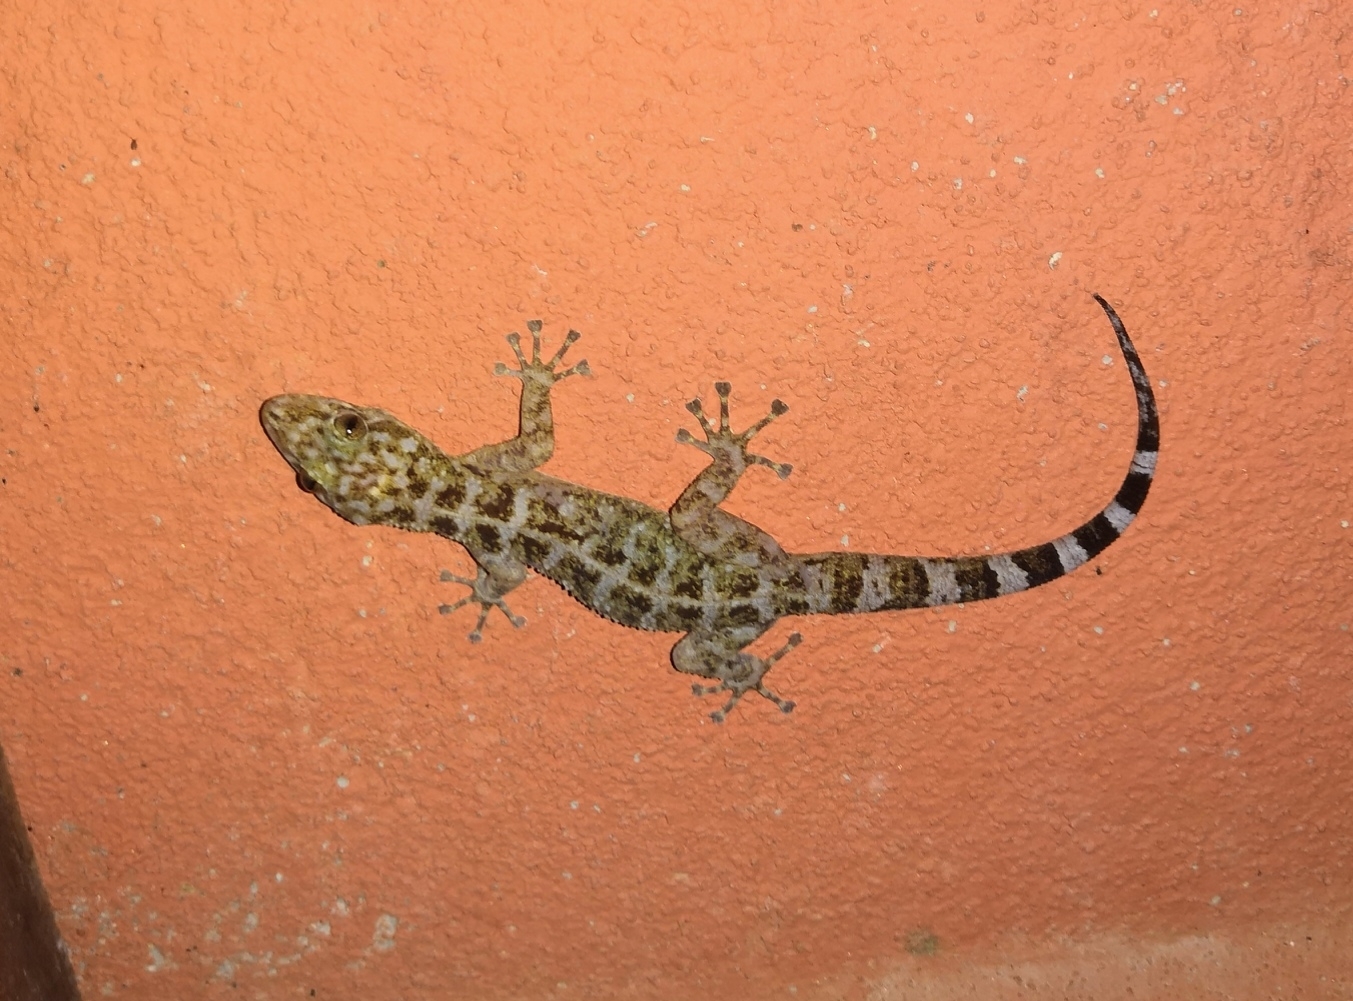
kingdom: Animalia
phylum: Chordata
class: Squamata
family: Phyllodactylidae
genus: Phyllodactylus
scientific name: Phyllodactylus tuberculosus
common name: Yellowbelly  gecko
